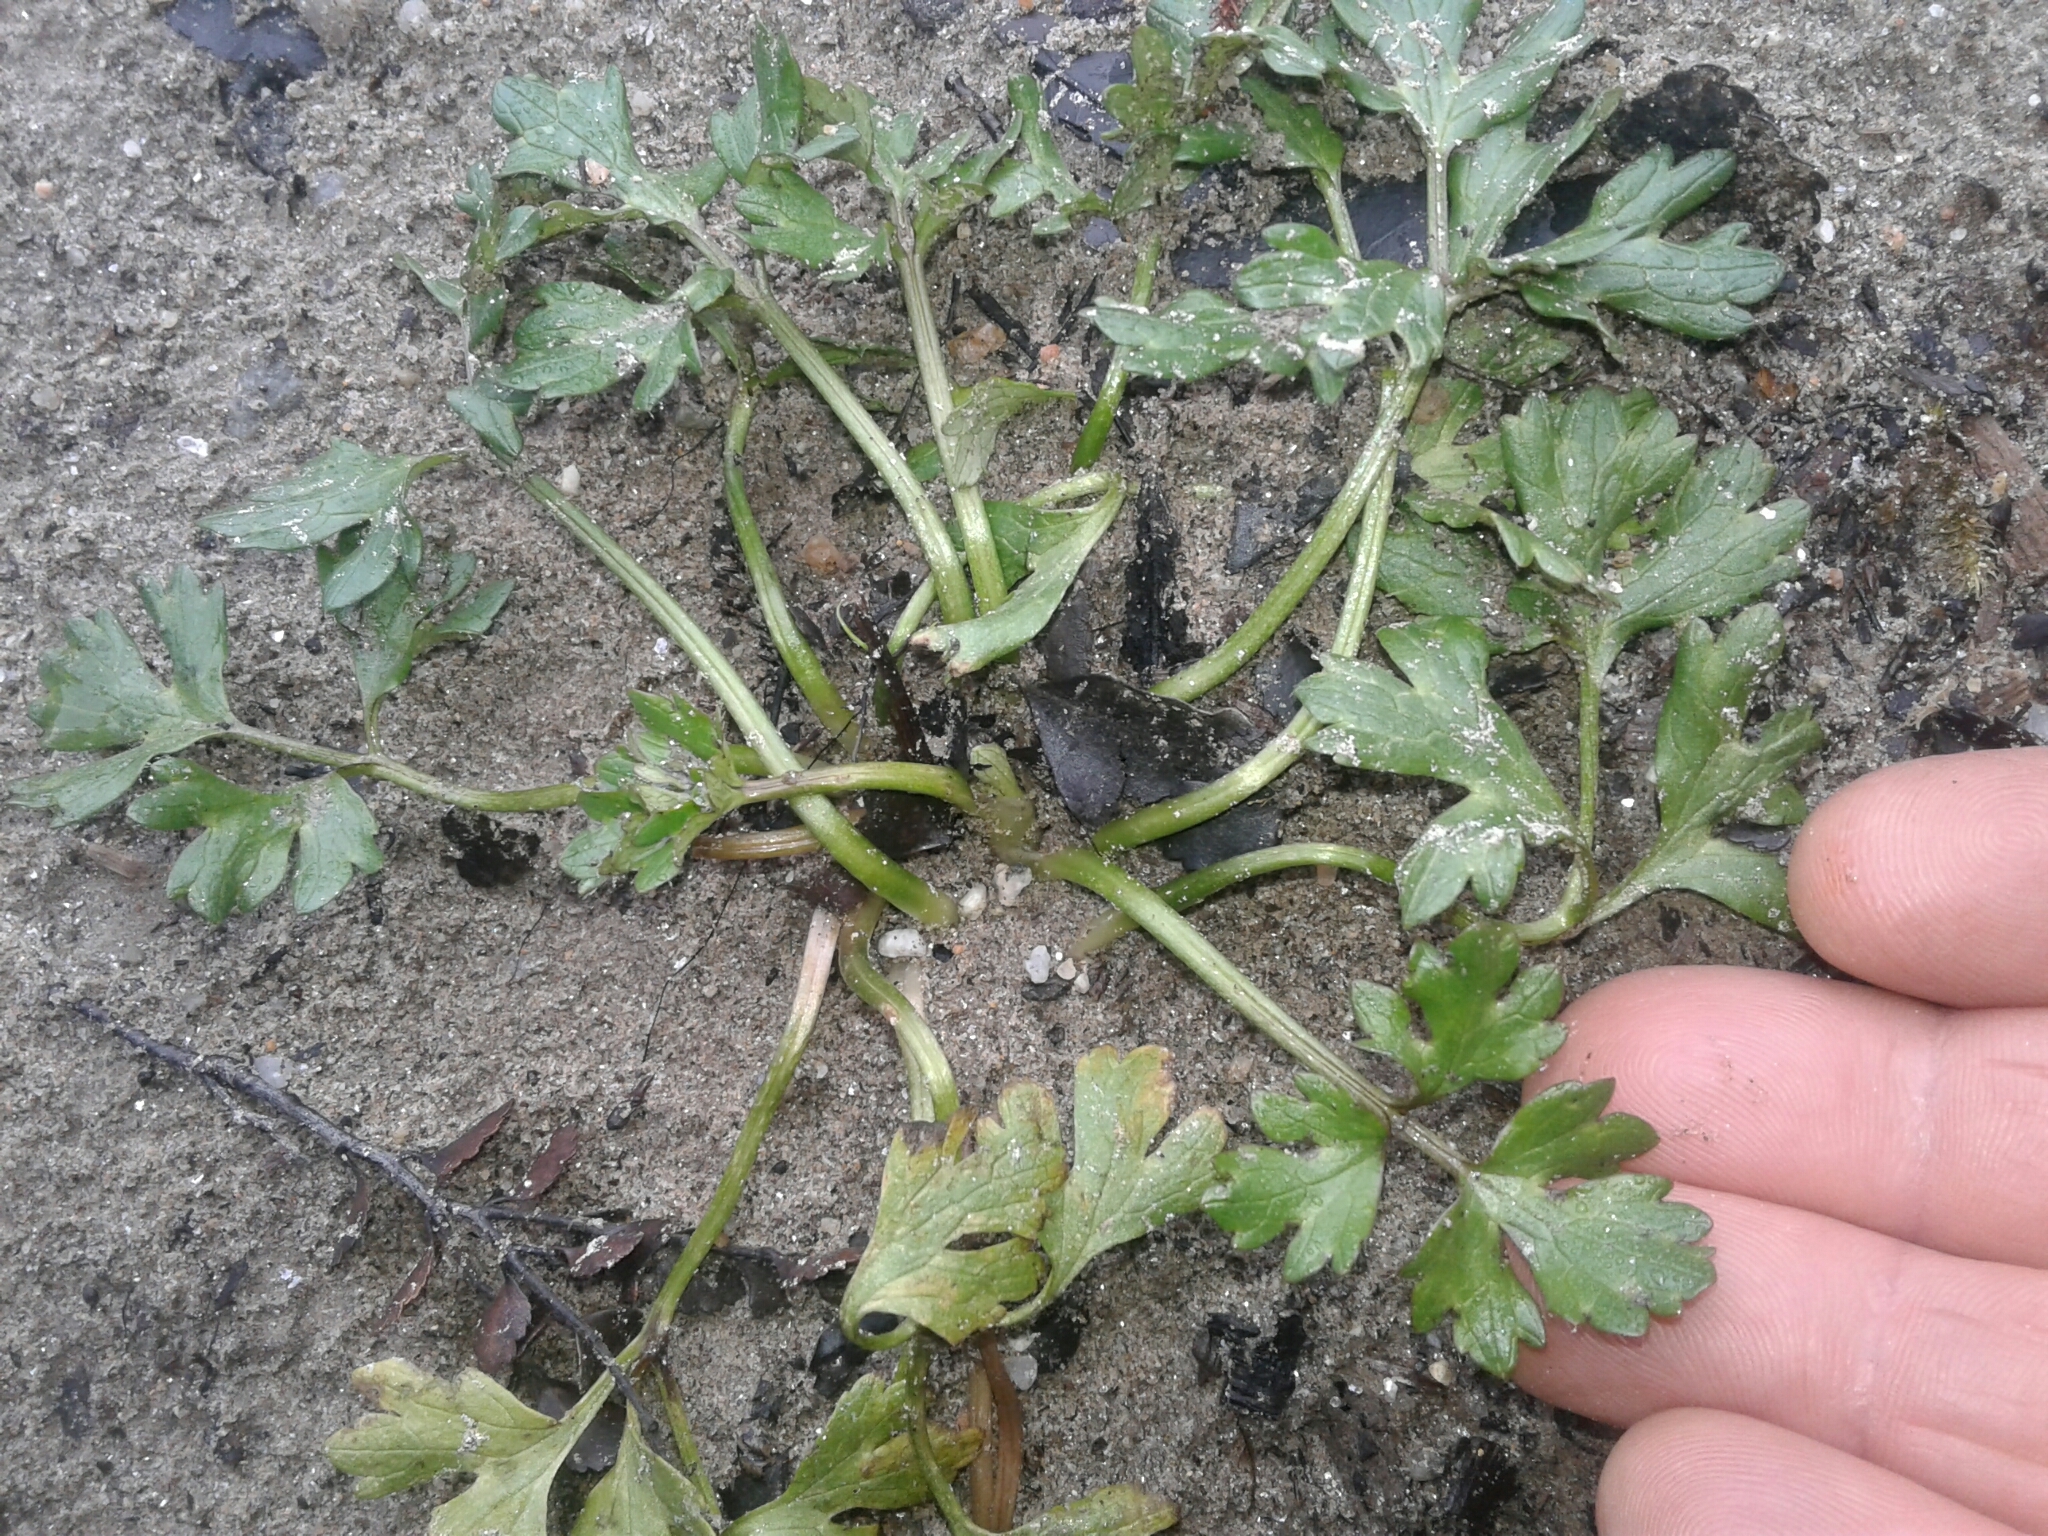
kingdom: Plantae
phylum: Tracheophyta
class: Magnoliopsida
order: Ranunculales
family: Ranunculaceae
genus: Ranunculus
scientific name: Ranunculus repens
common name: Creeping buttercup
